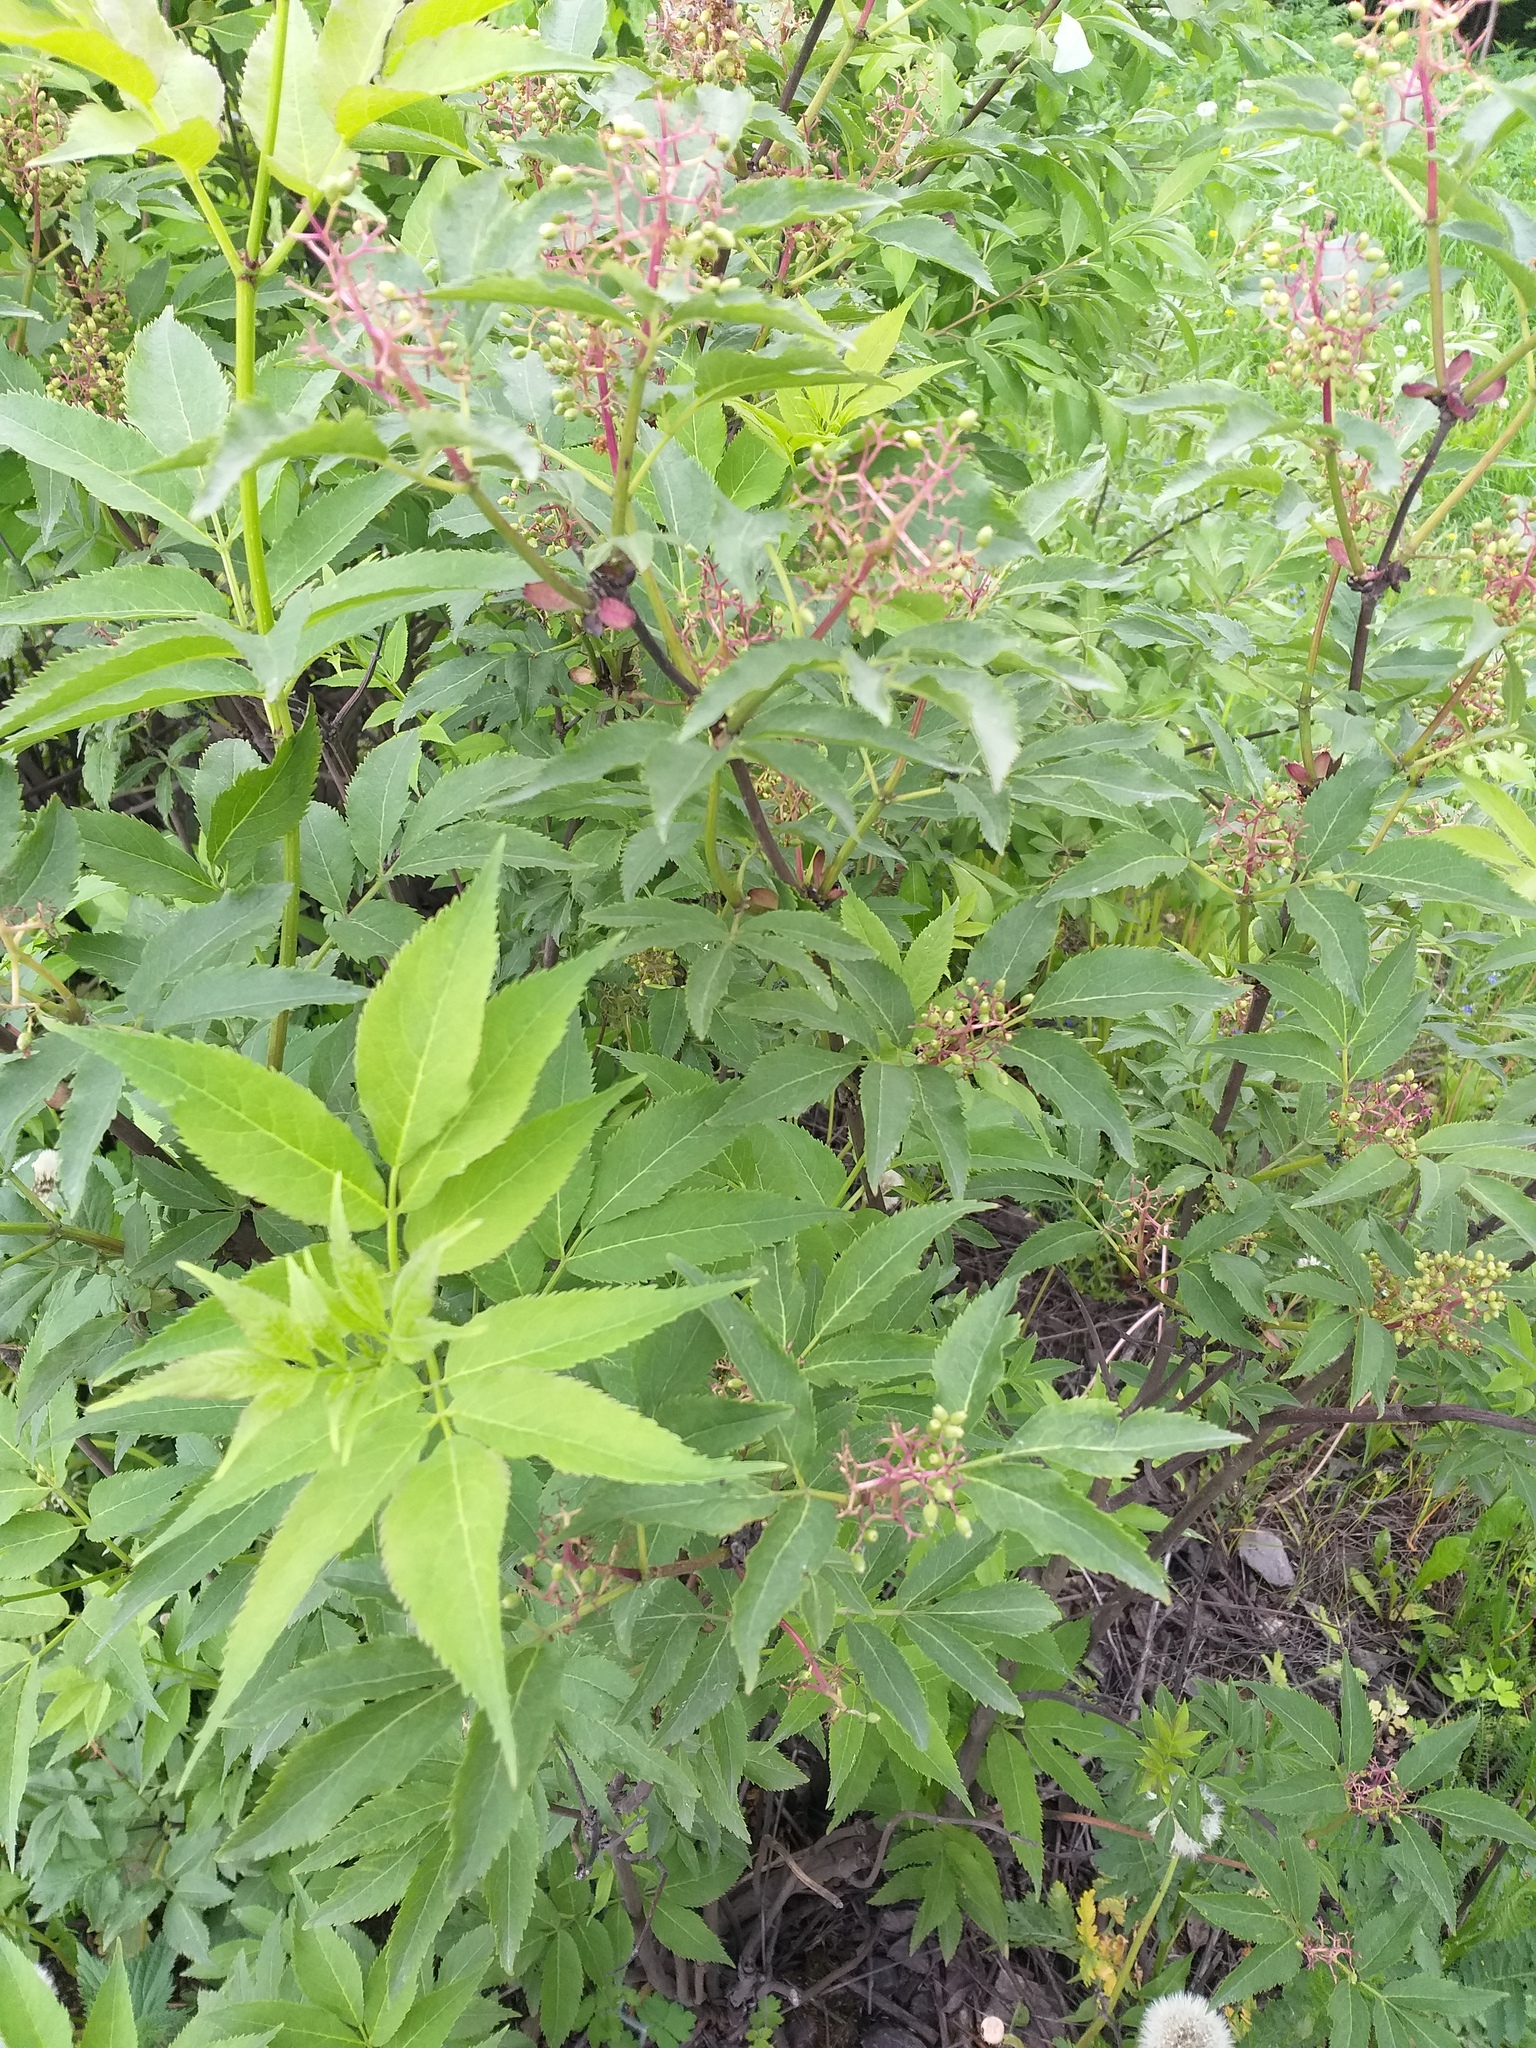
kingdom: Plantae
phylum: Tracheophyta
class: Magnoliopsida
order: Dipsacales
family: Viburnaceae
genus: Sambucus
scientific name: Sambucus racemosa
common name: Red-berried elder
